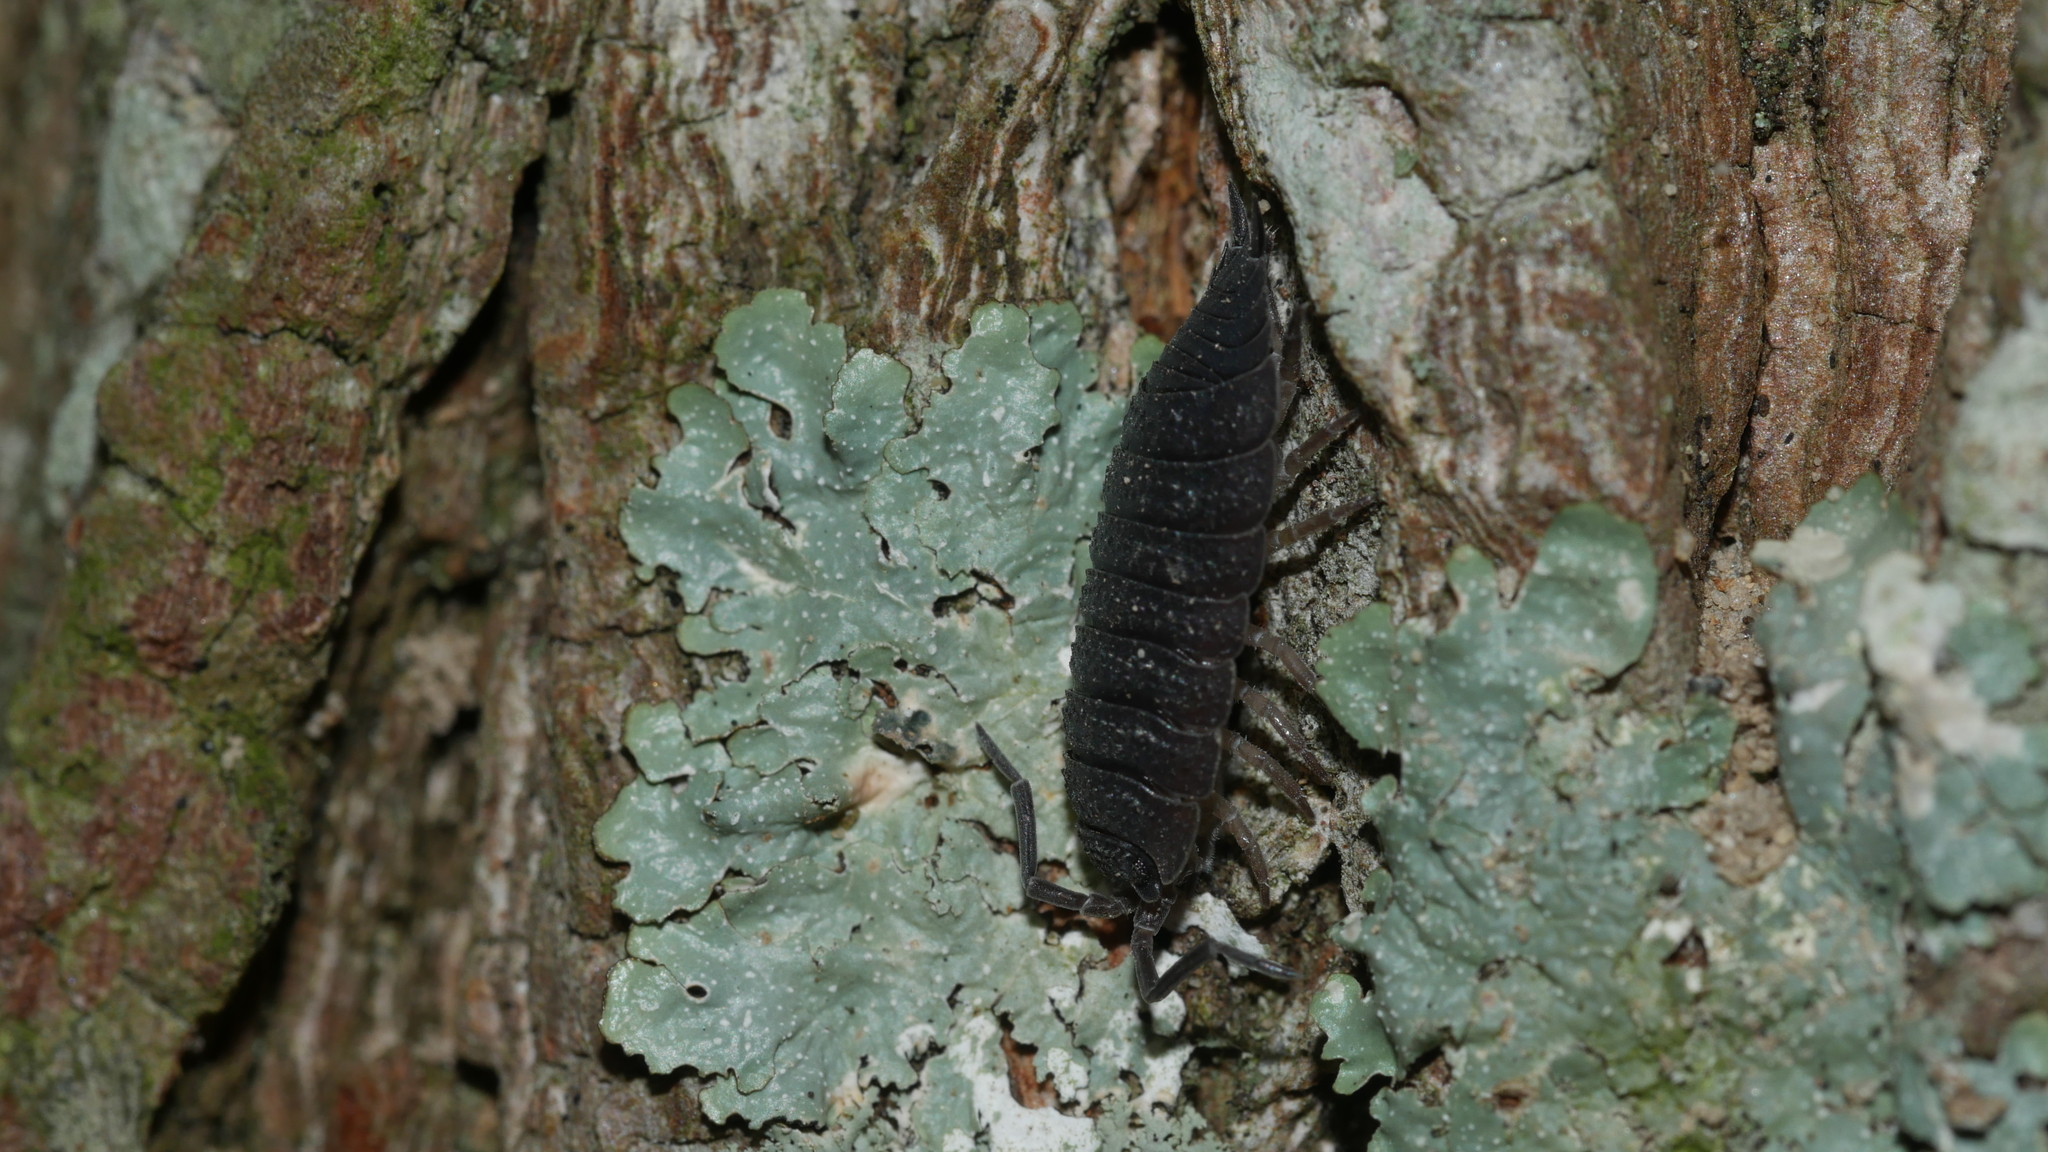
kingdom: Animalia
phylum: Arthropoda
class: Malacostraca
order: Isopoda
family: Porcellionidae
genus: Porcellio
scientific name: Porcellio scaber
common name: Common rough woodlouse
